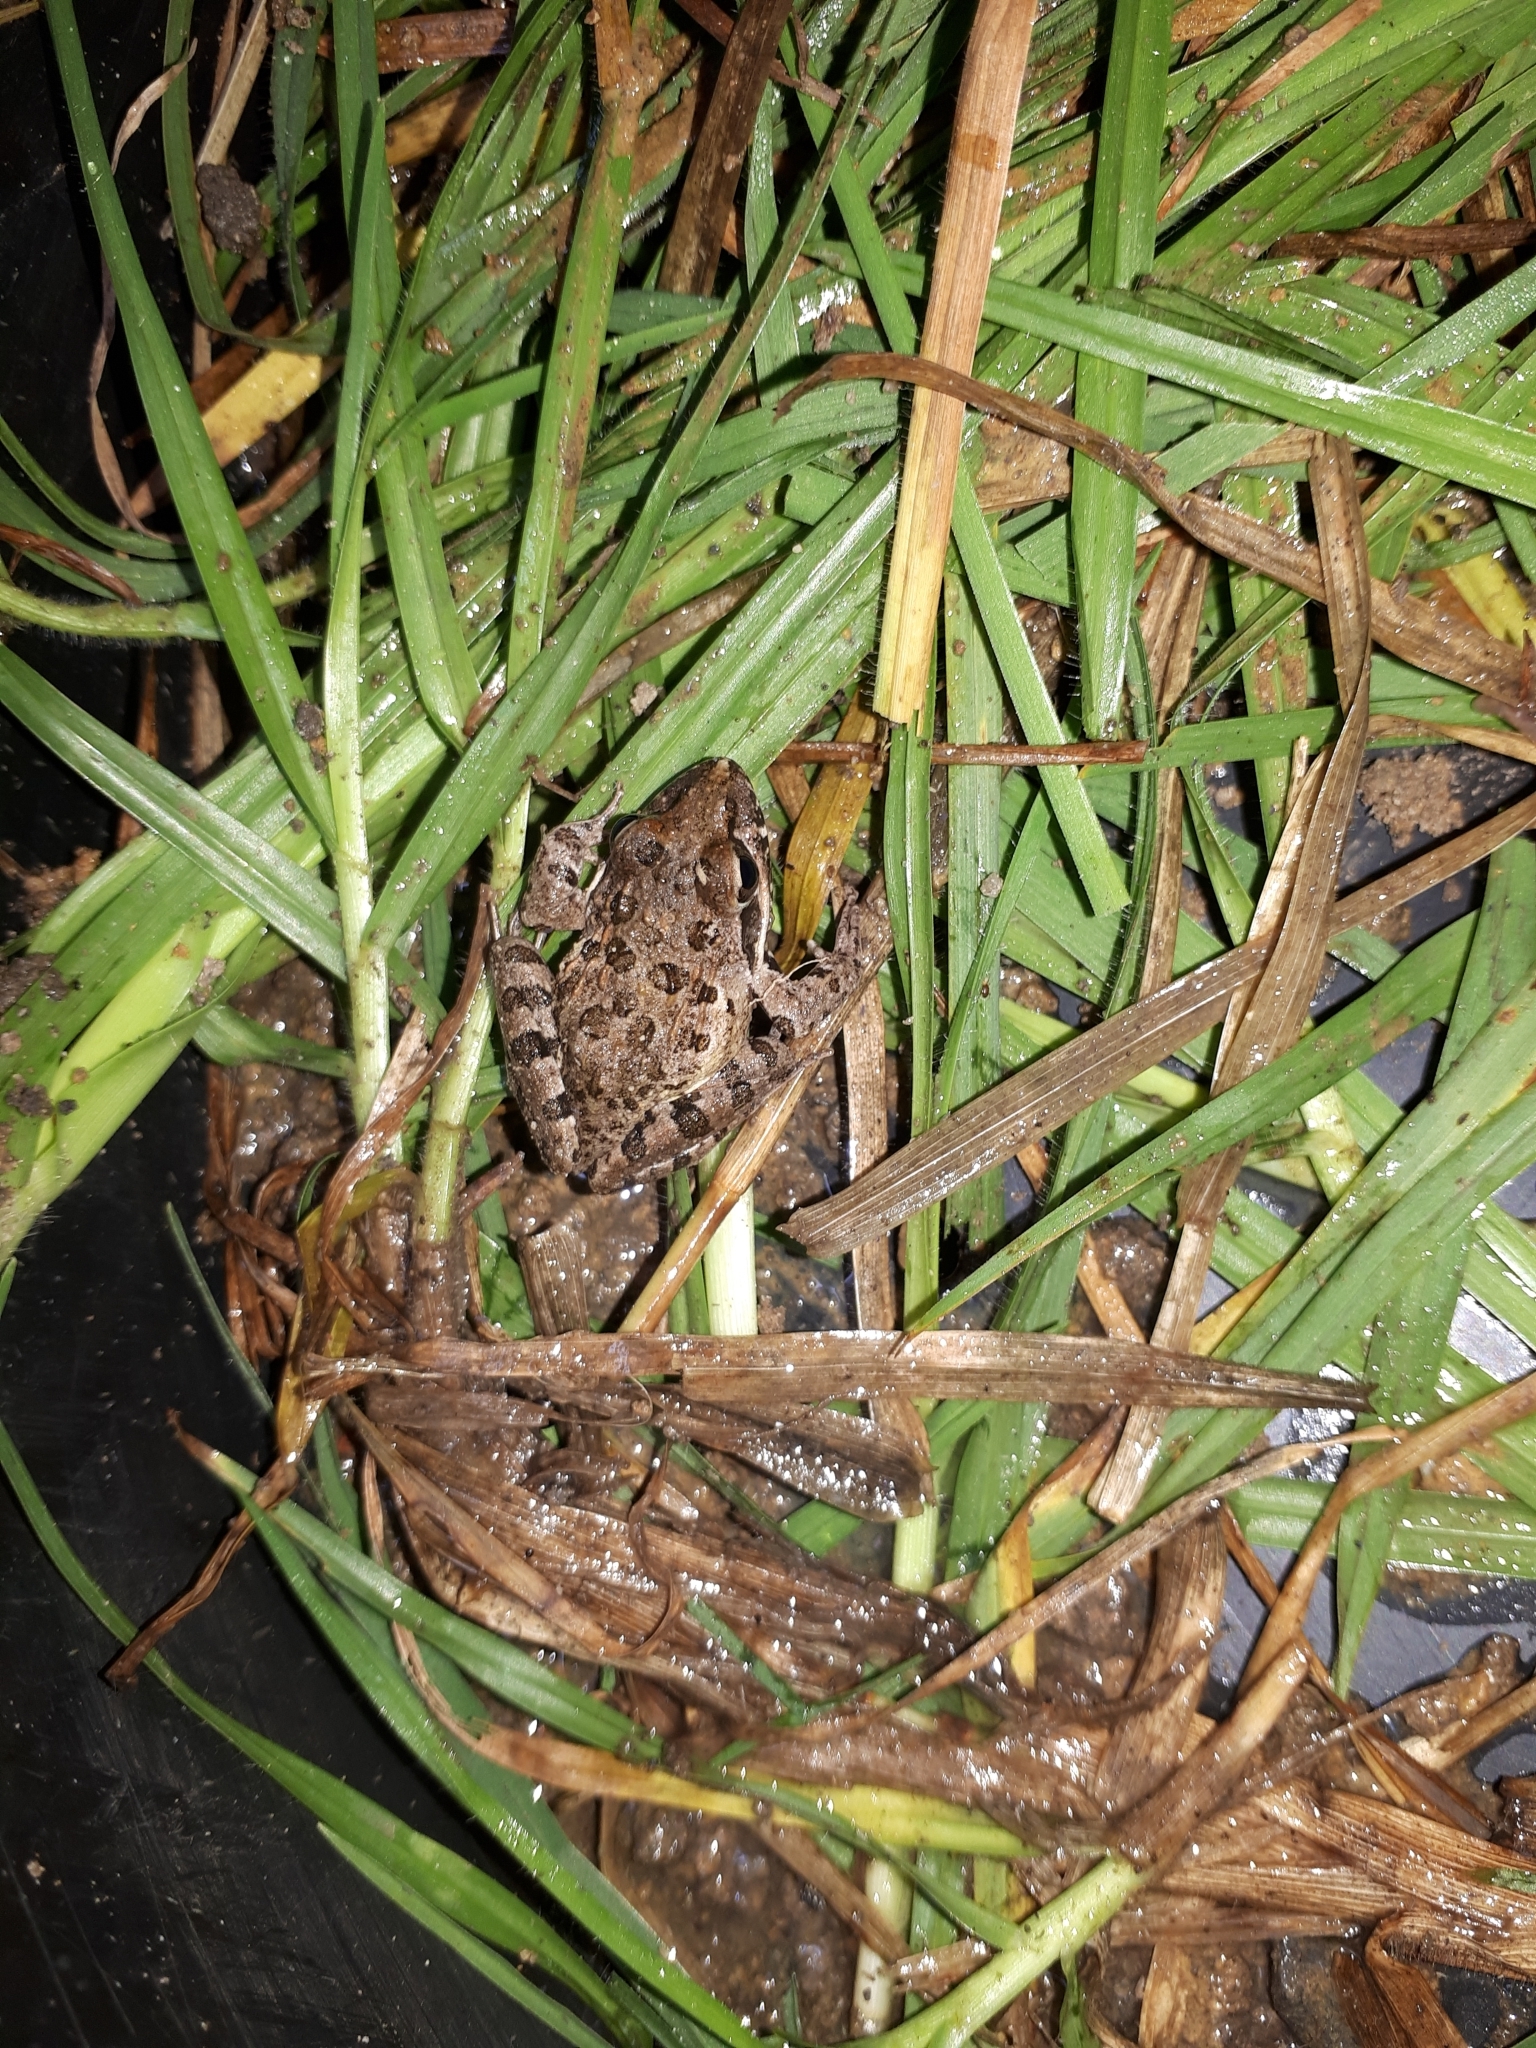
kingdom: Animalia
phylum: Chordata
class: Amphibia
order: Anura
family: Pyxicephalidae
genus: Strongylopus
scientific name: Strongylopus grayii
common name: Gray's stream frog
